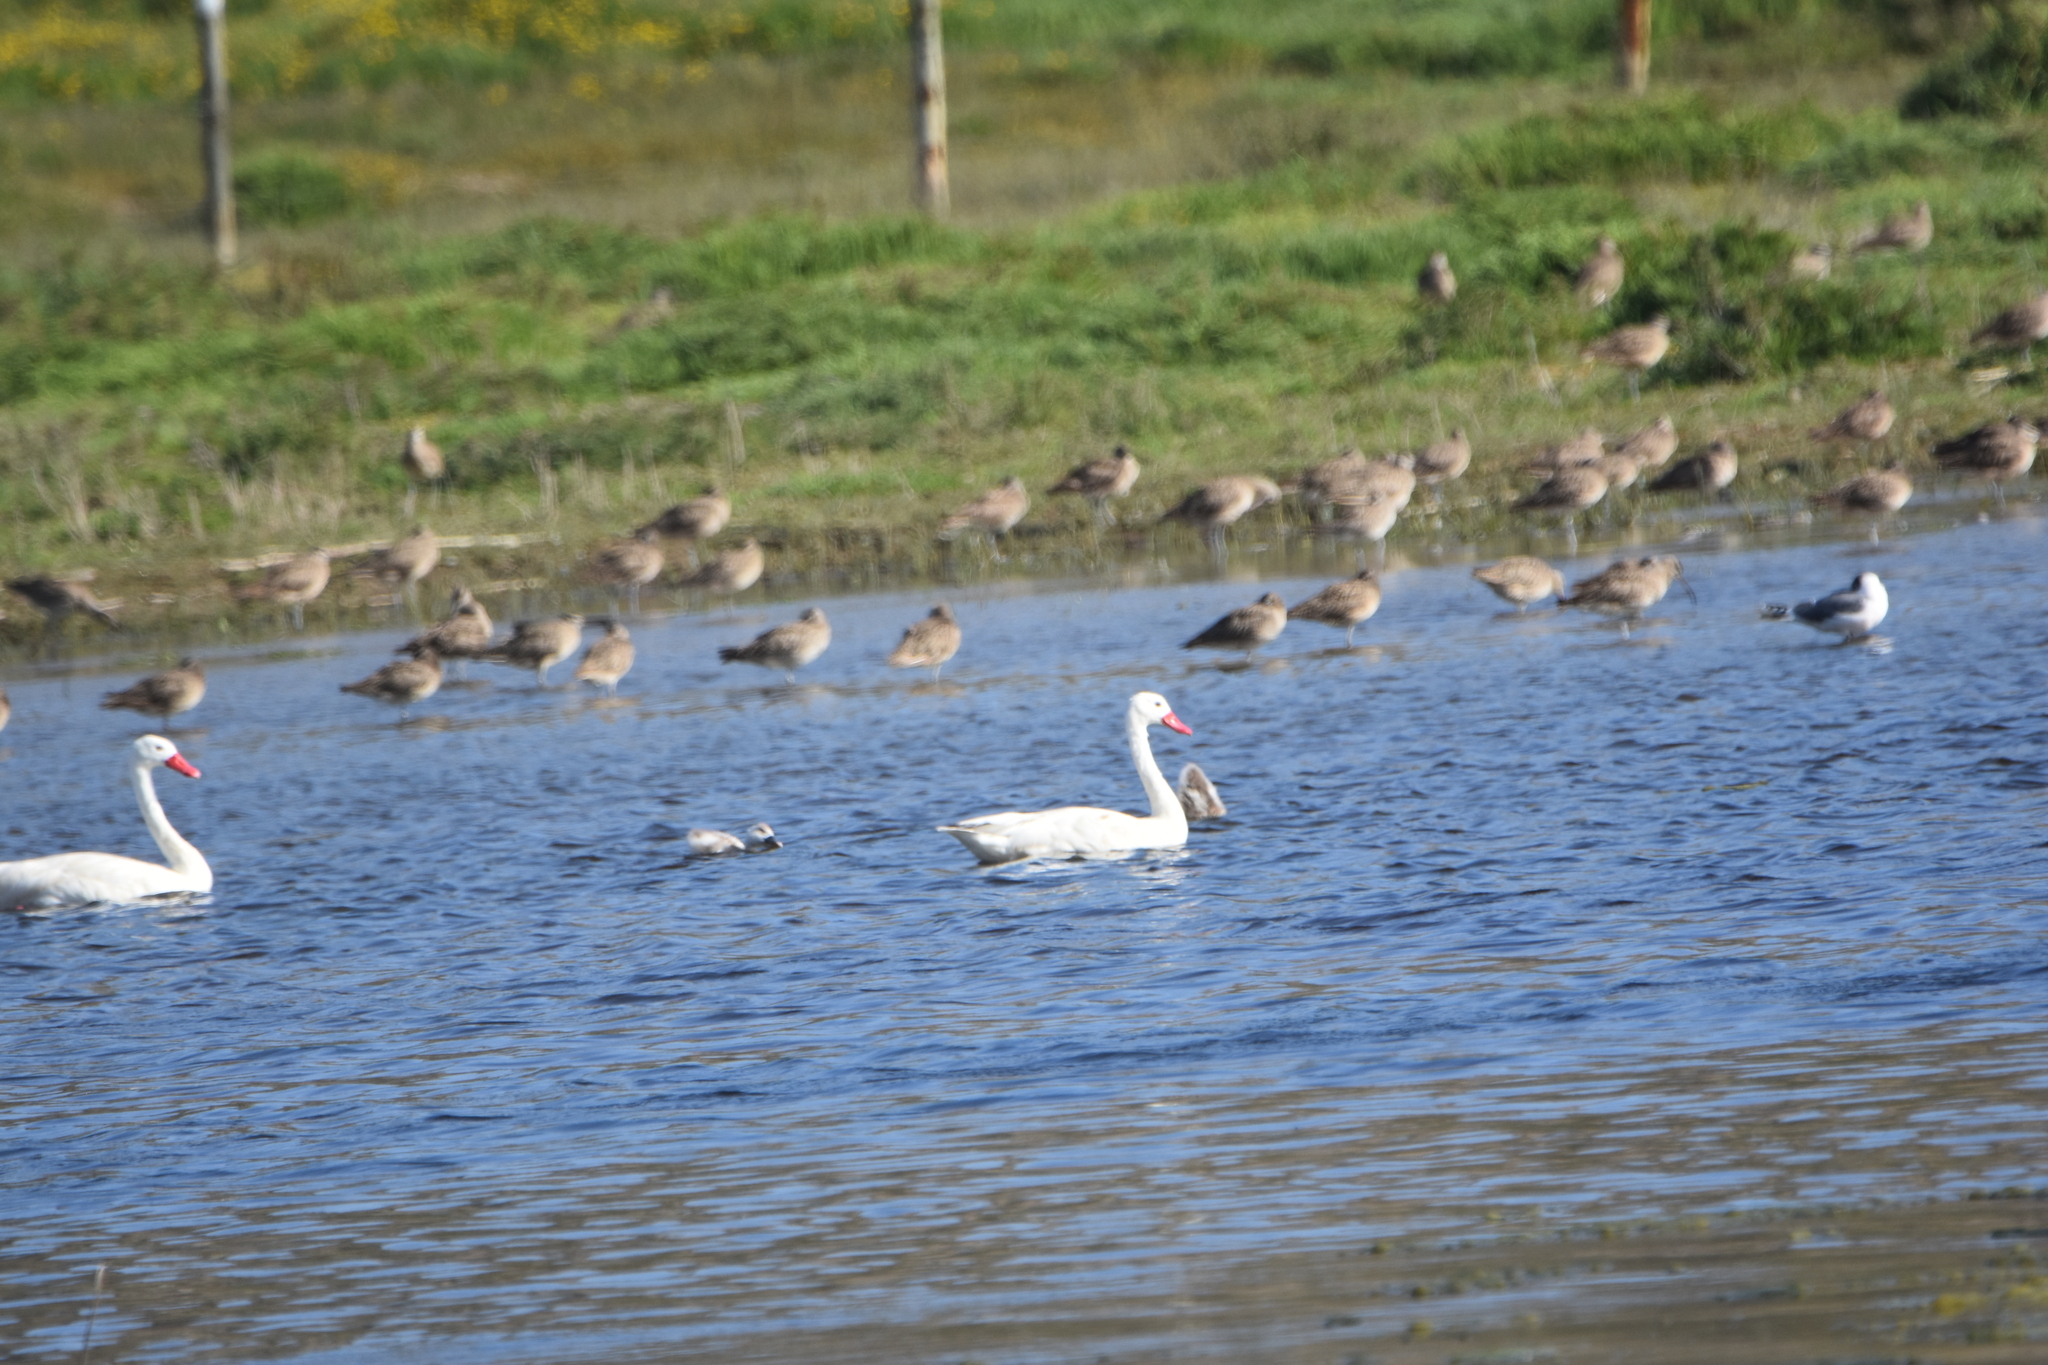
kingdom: Animalia
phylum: Chordata
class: Aves
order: Anseriformes
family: Anatidae
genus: Coscoroba
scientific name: Coscoroba coscoroba
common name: Coscoroba swan
